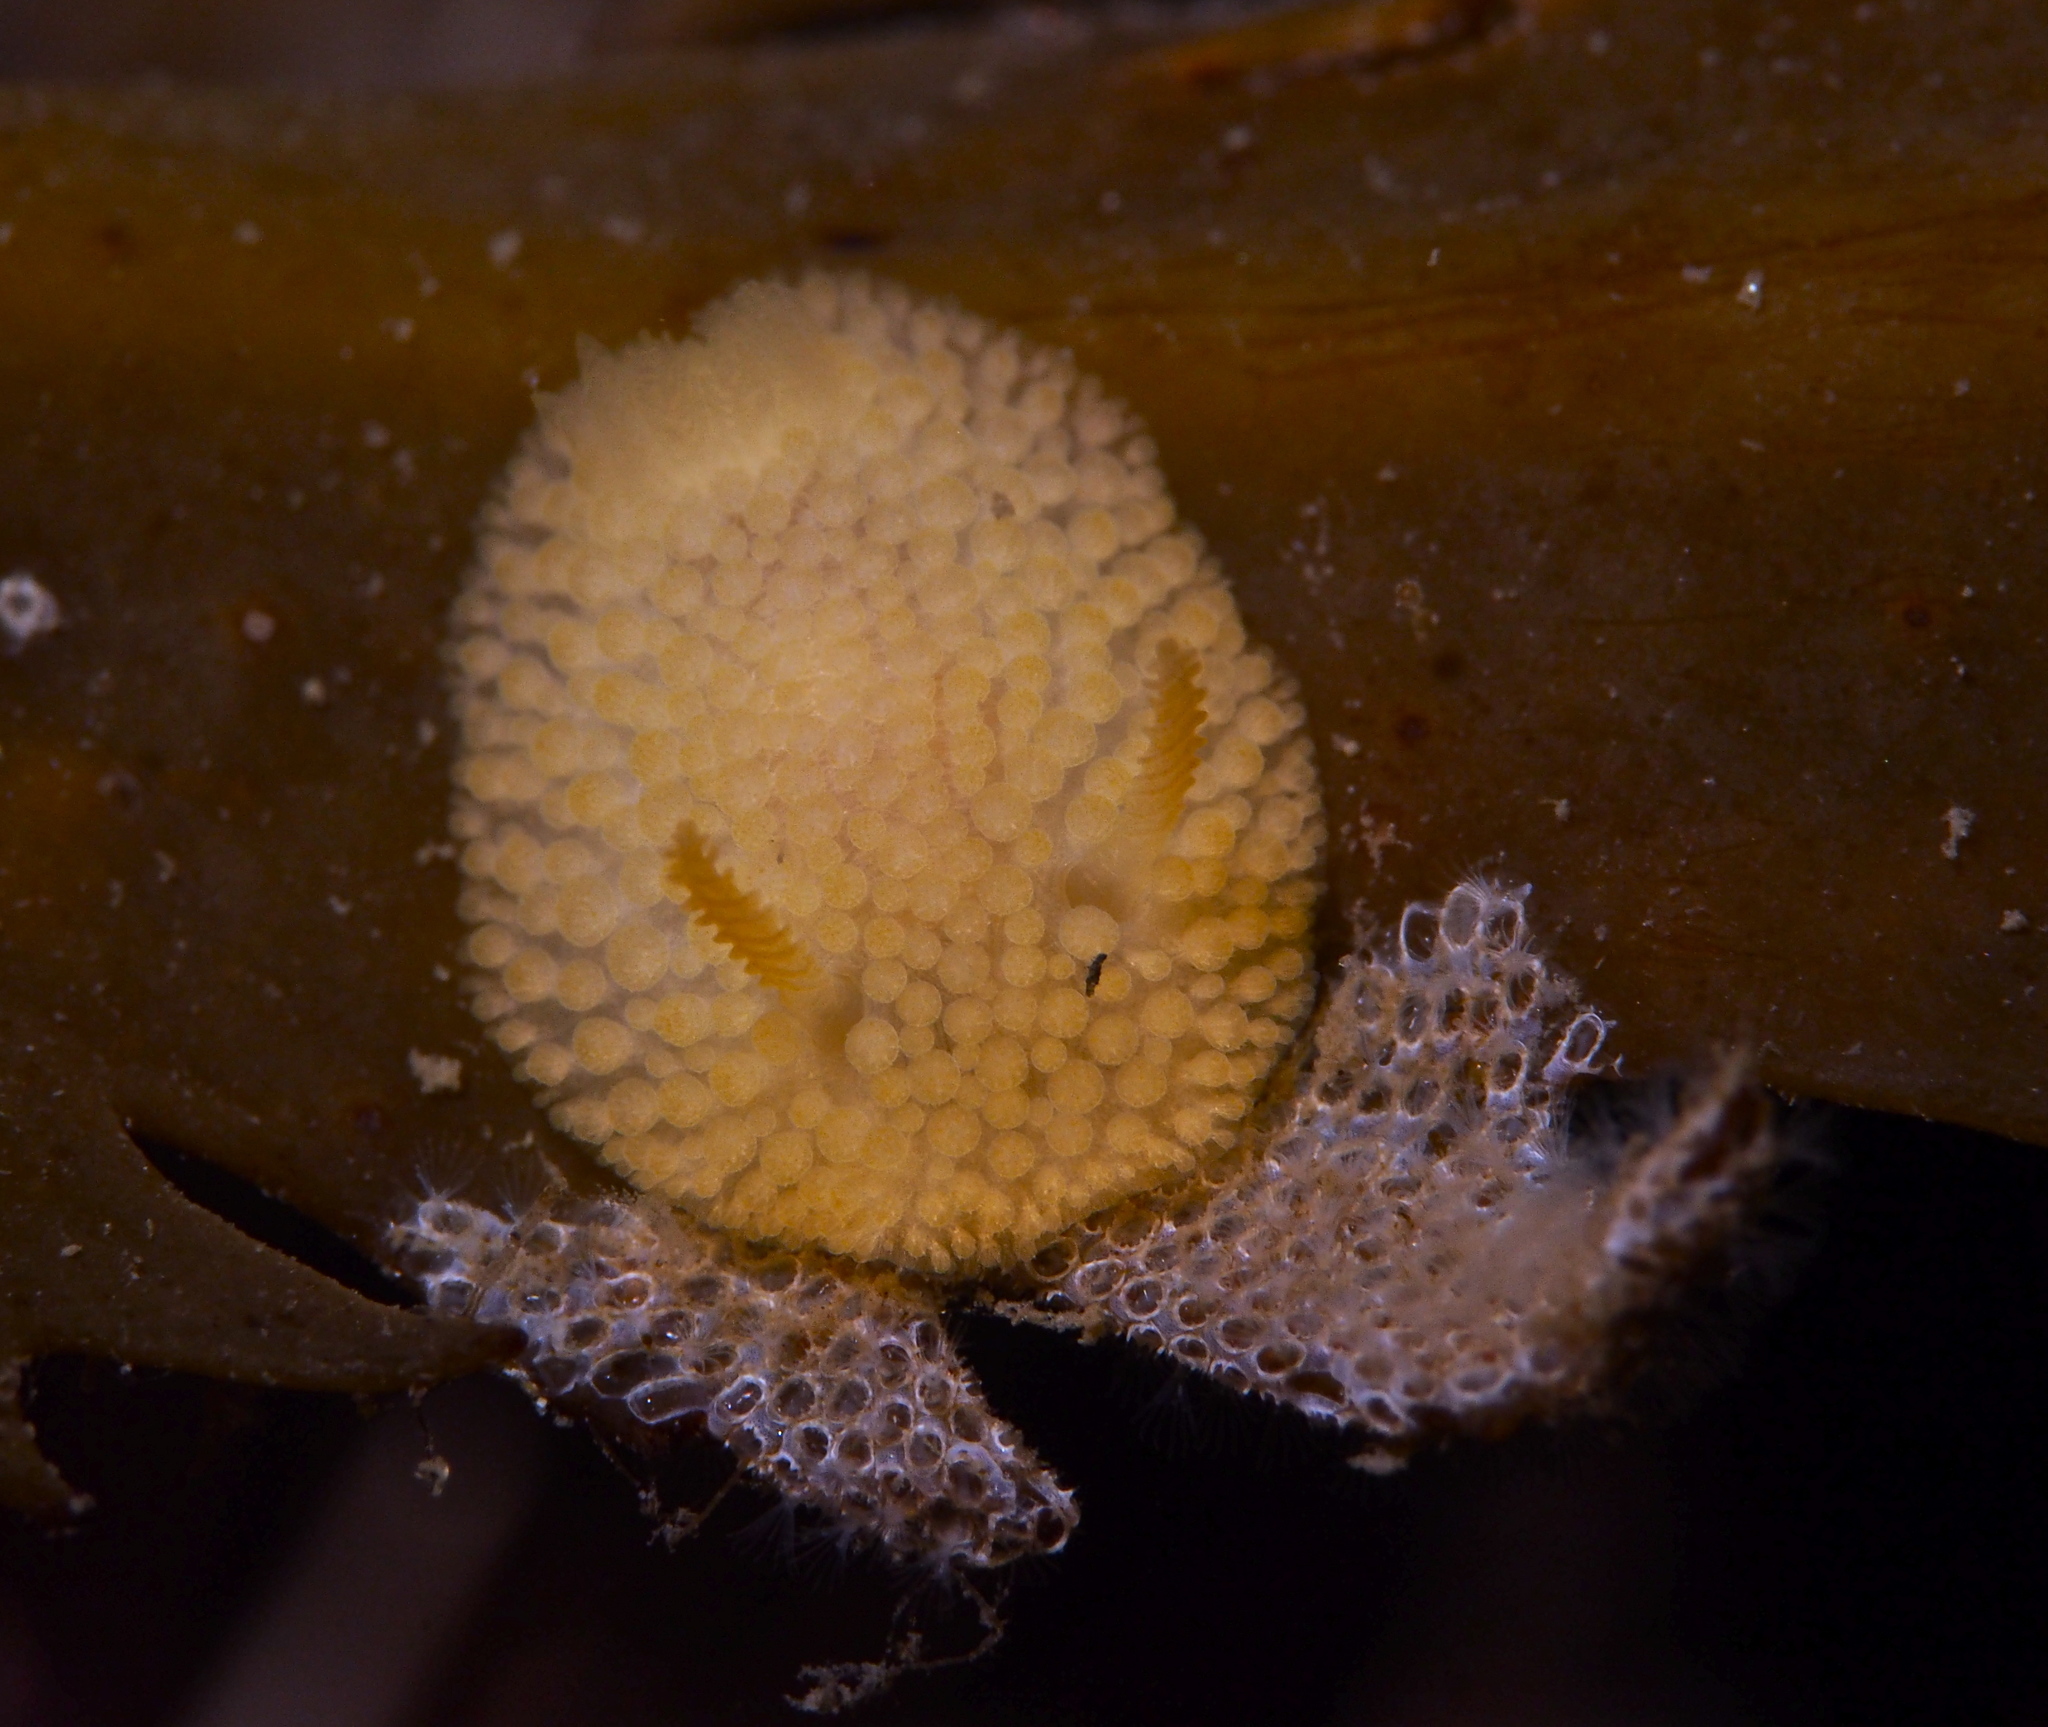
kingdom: Animalia
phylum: Mollusca
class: Gastropoda
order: Nudibranchia
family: Onchidorididae
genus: Onchidoris
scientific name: Onchidoris muricata
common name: Rough doris
